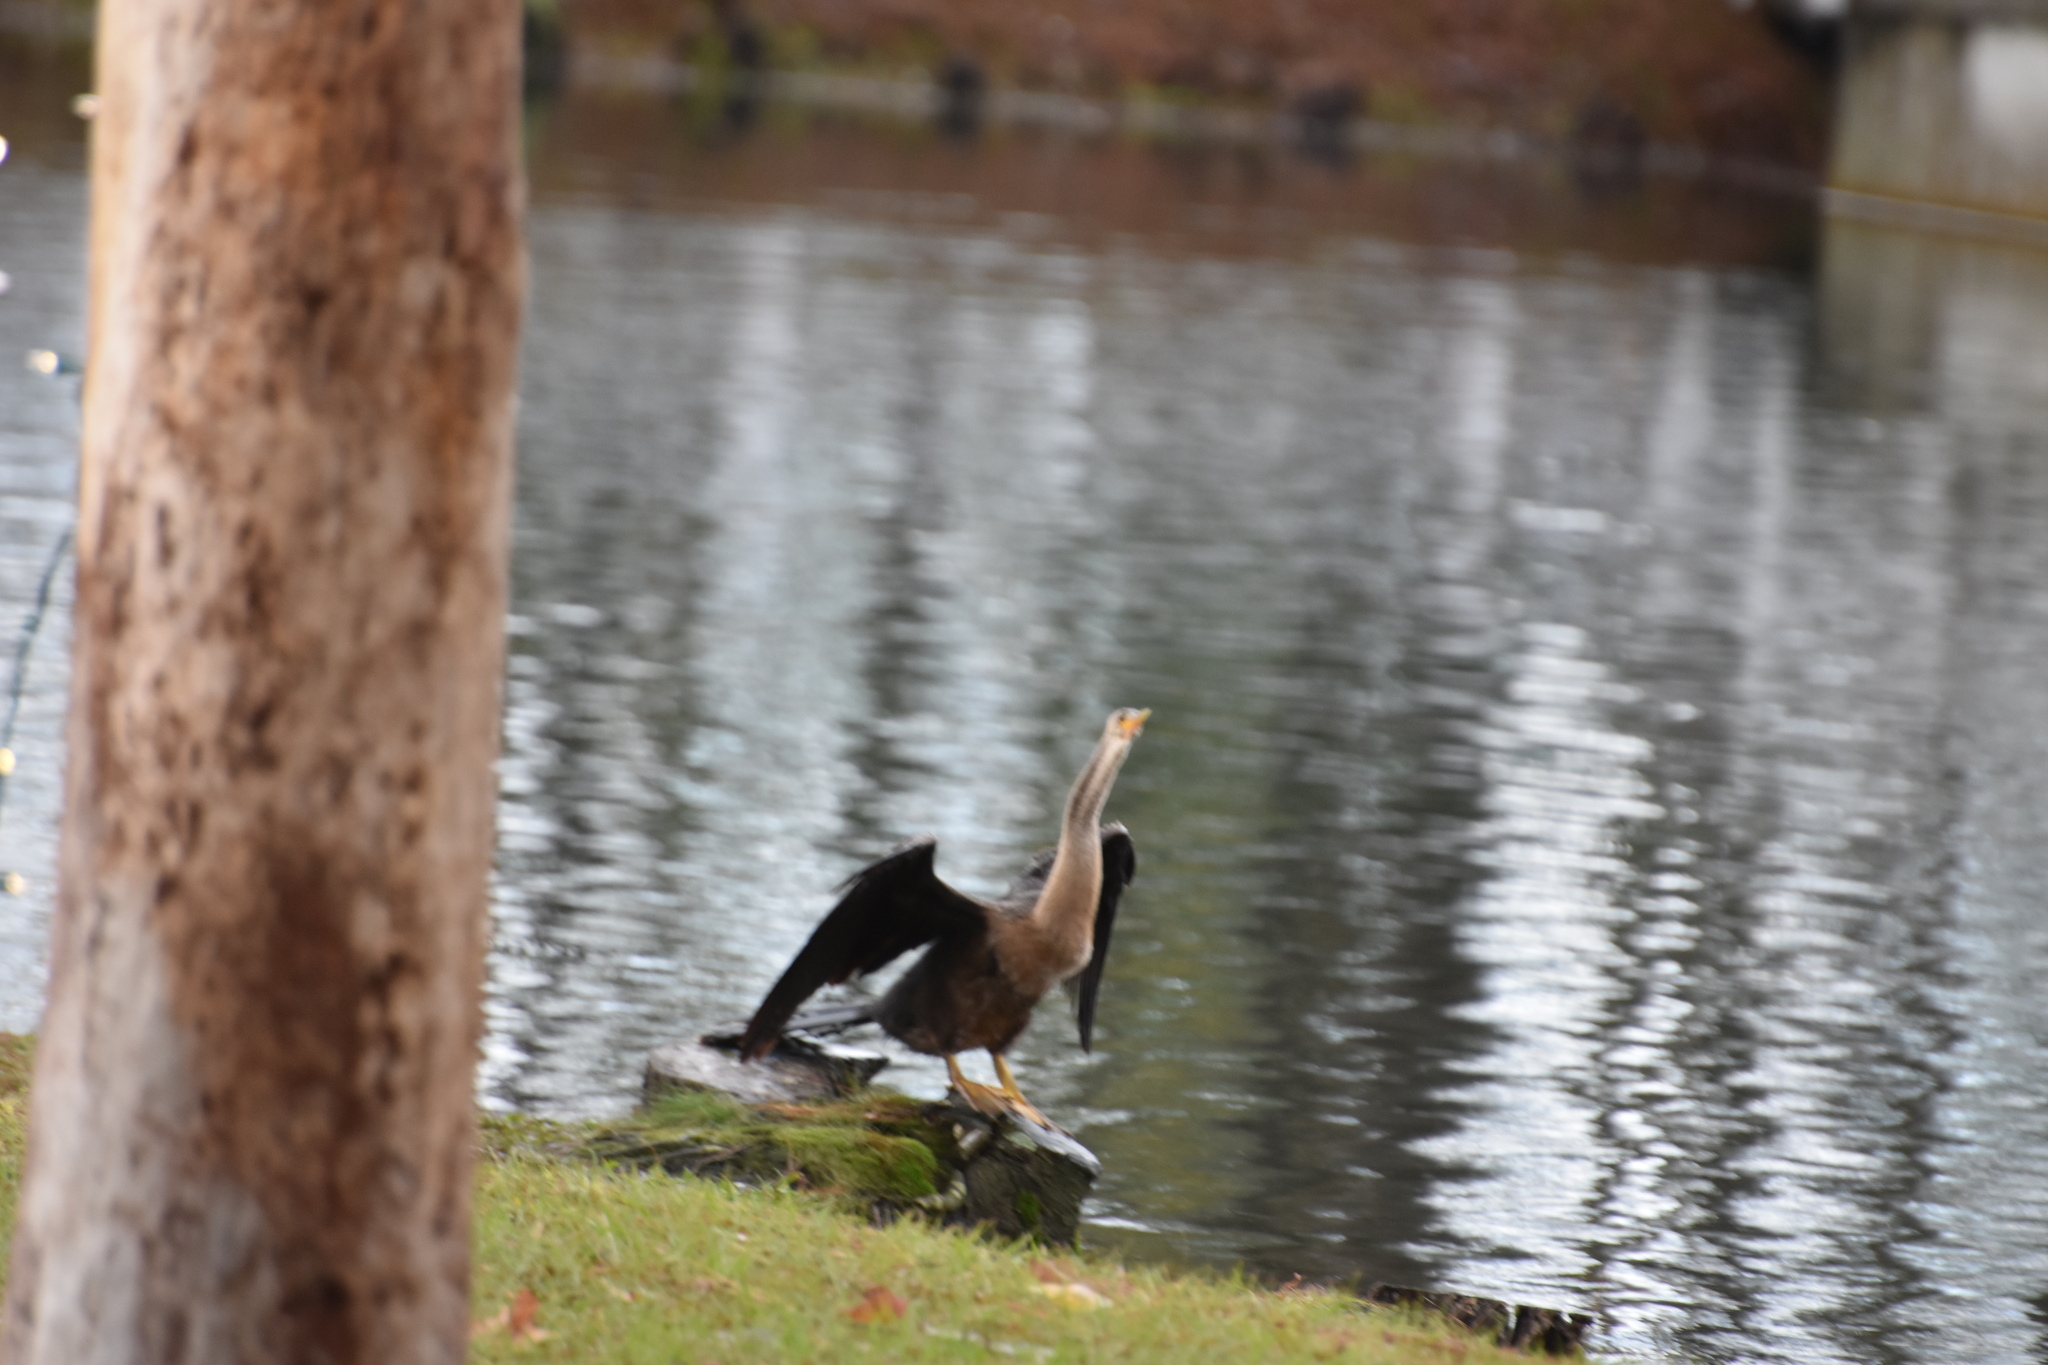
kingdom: Animalia
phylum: Chordata
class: Aves
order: Suliformes
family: Anhingidae
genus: Anhinga
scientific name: Anhinga anhinga
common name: Anhinga
